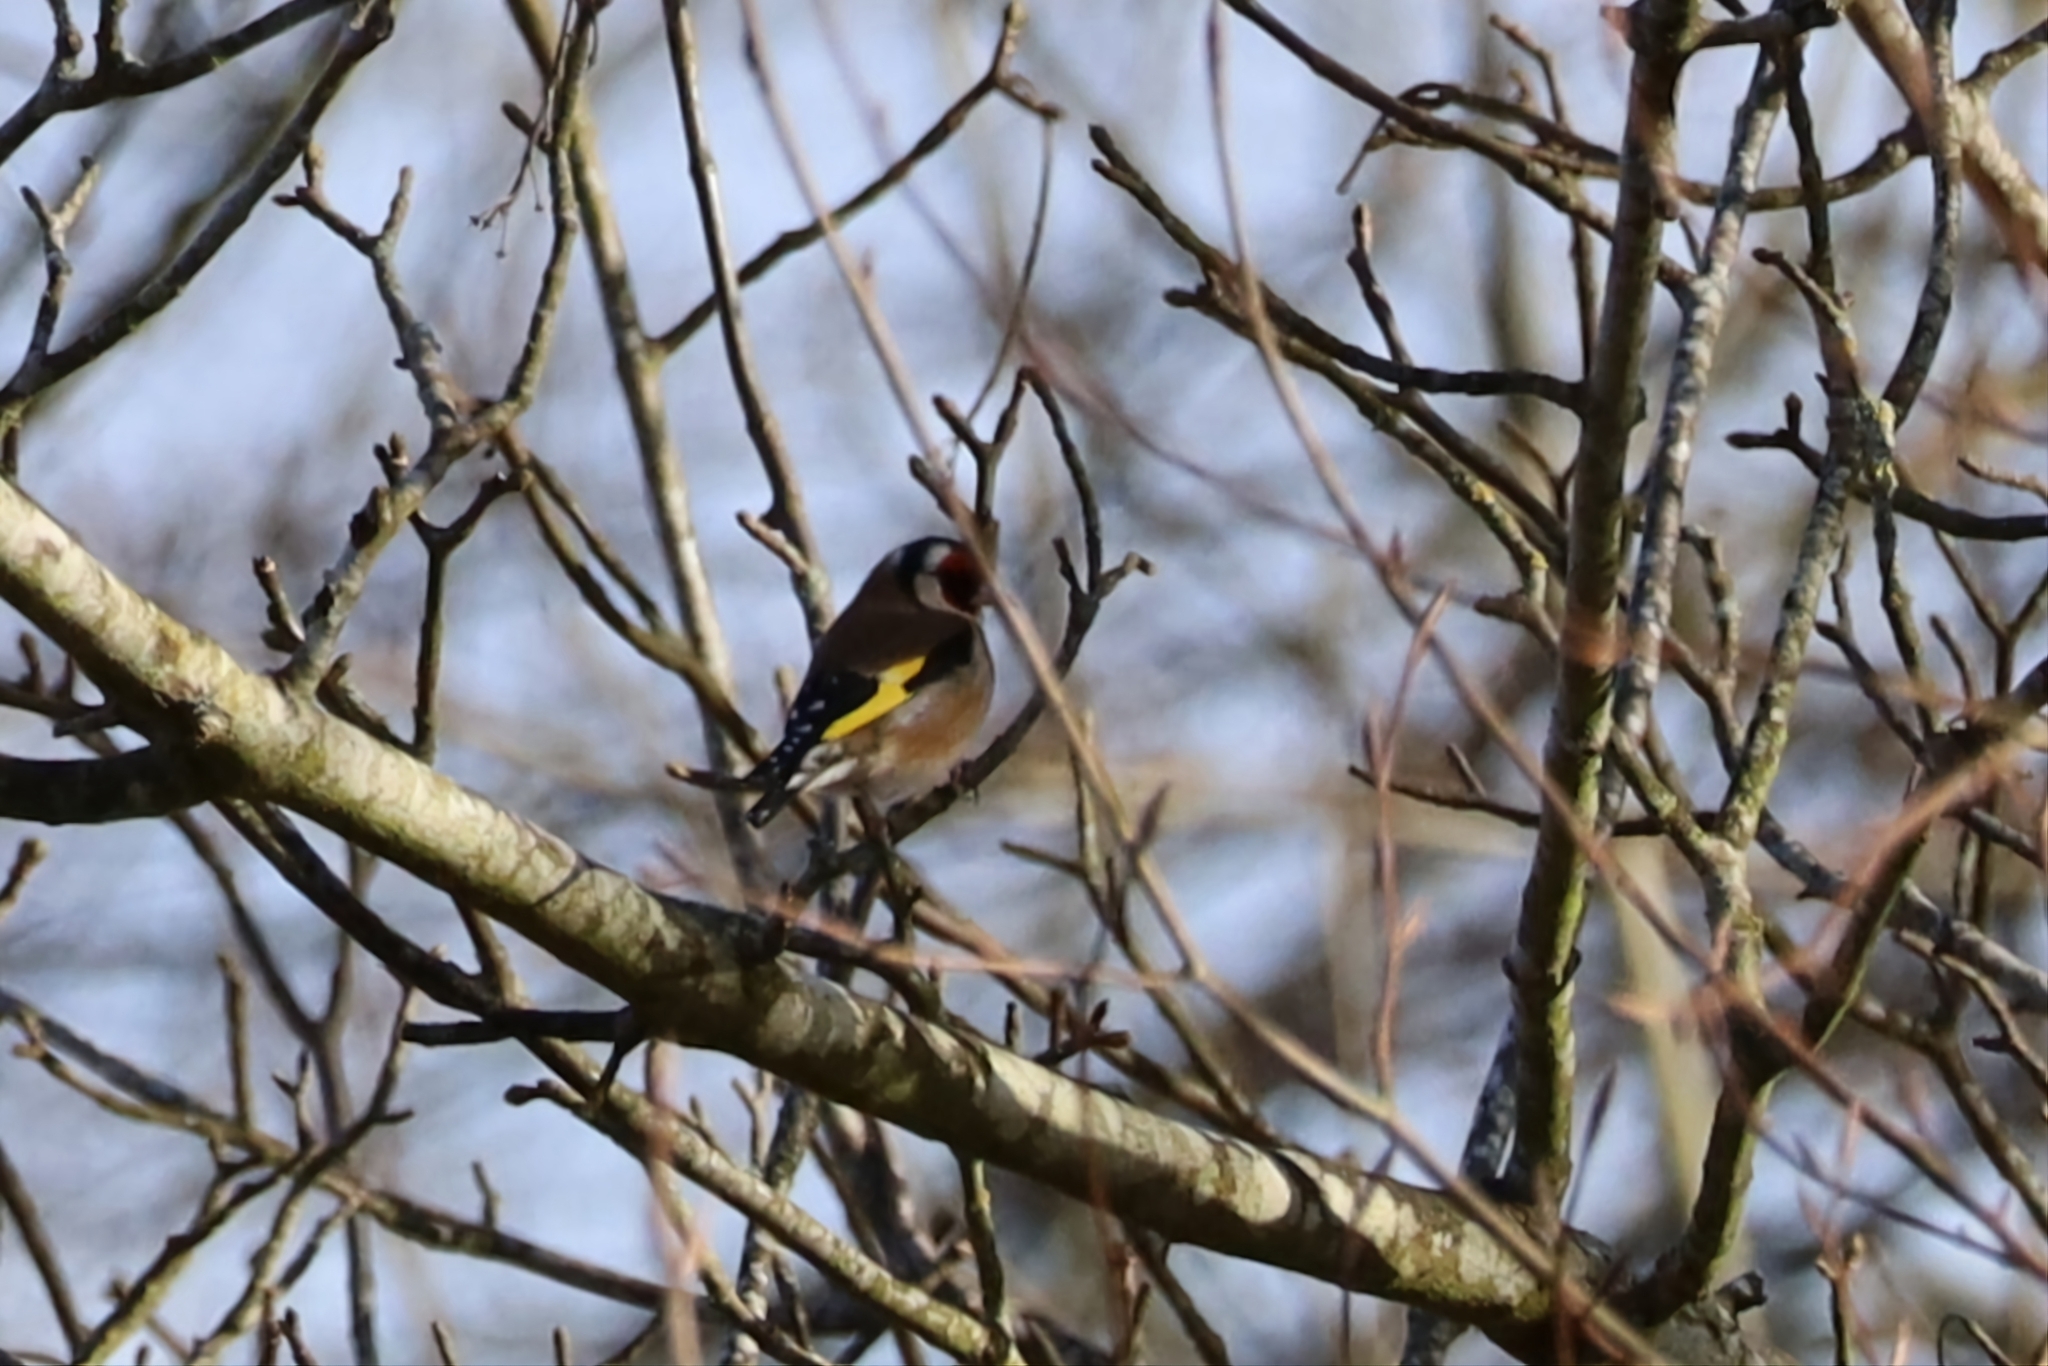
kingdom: Animalia
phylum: Chordata
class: Aves
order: Passeriformes
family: Fringillidae
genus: Carduelis
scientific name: Carduelis carduelis
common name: European goldfinch
